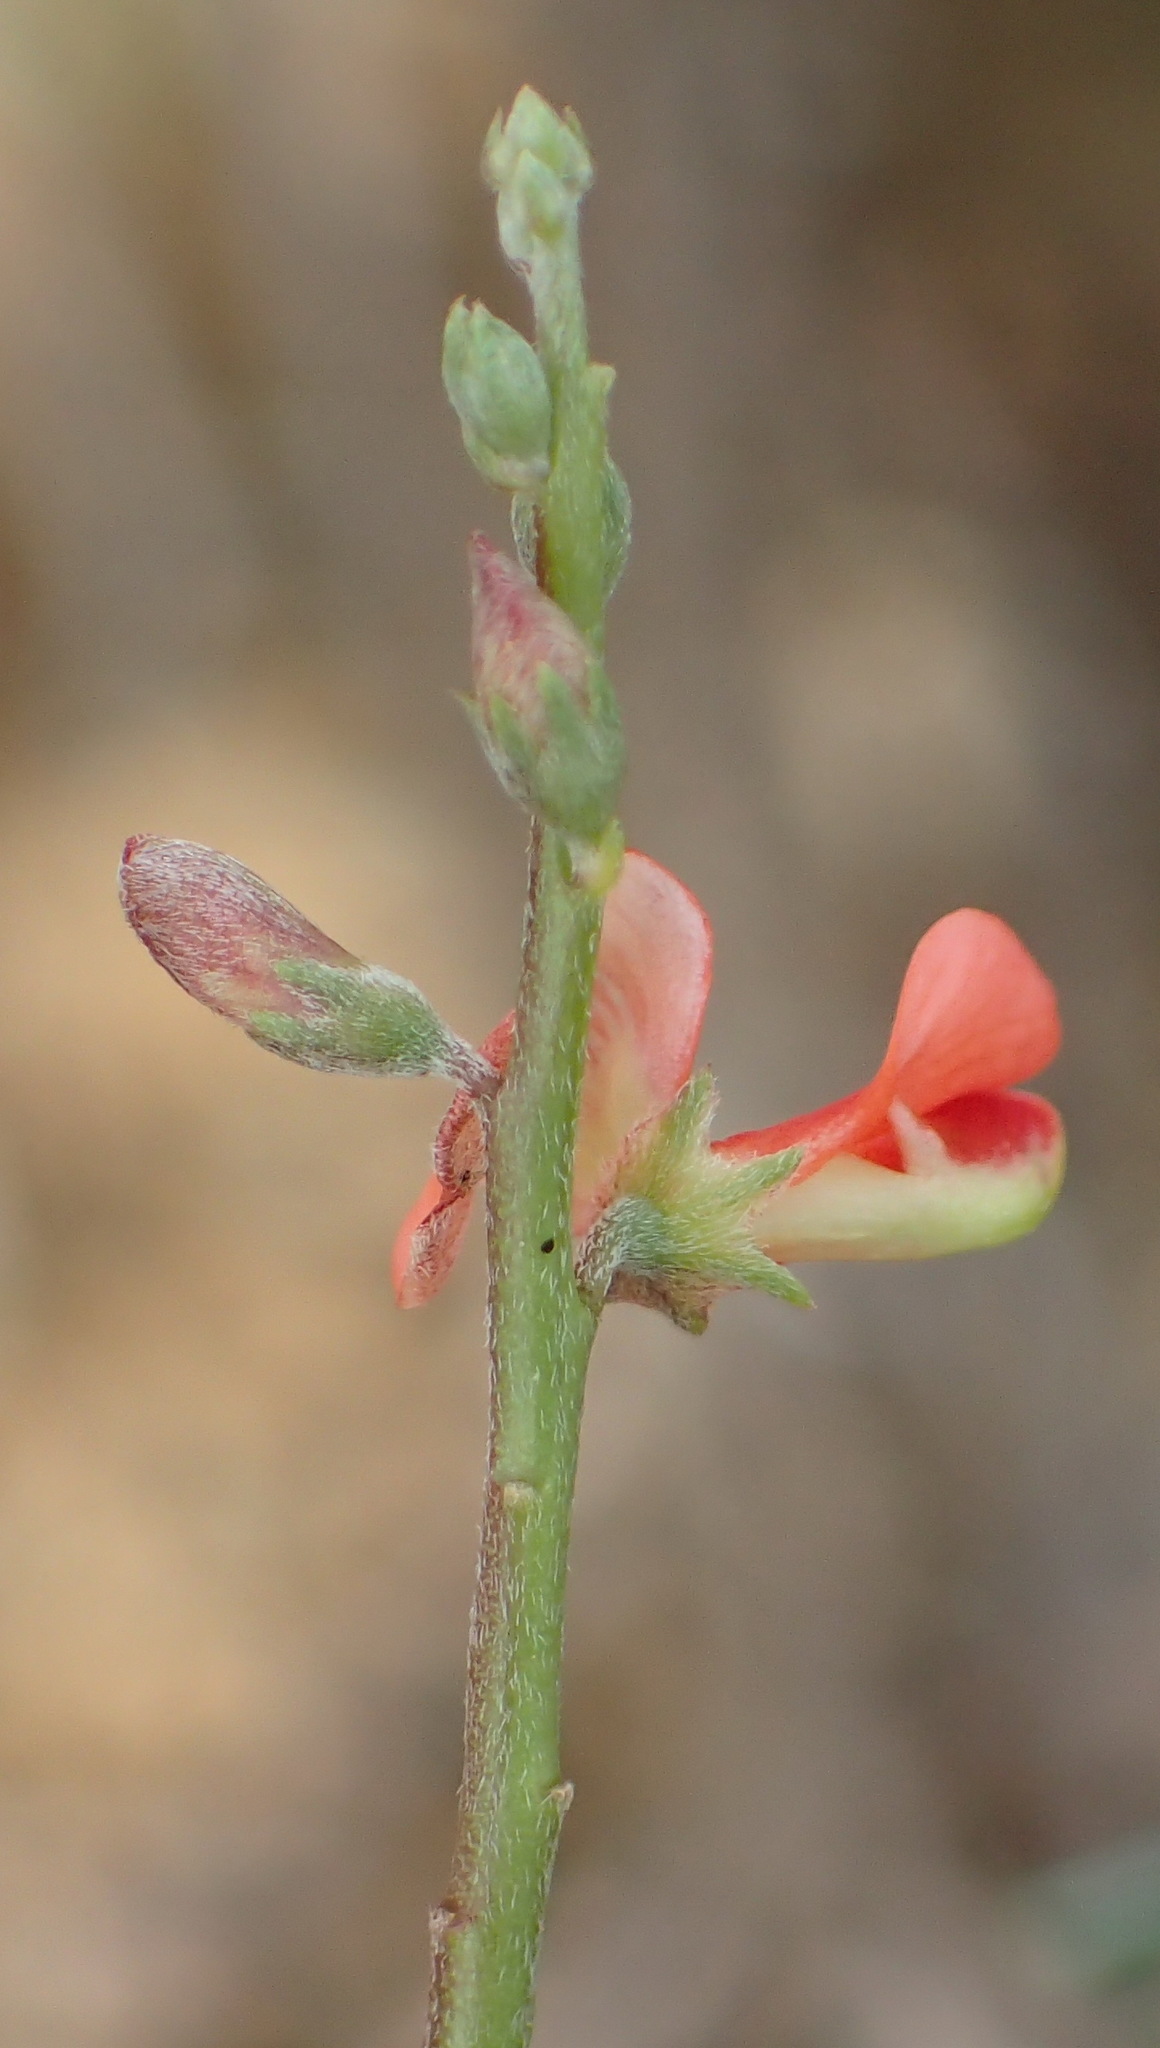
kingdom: Plantae
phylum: Tracheophyta
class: Magnoliopsida
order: Fabales
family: Fabaceae
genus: Indigofera
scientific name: Indigofera sessilifolia
